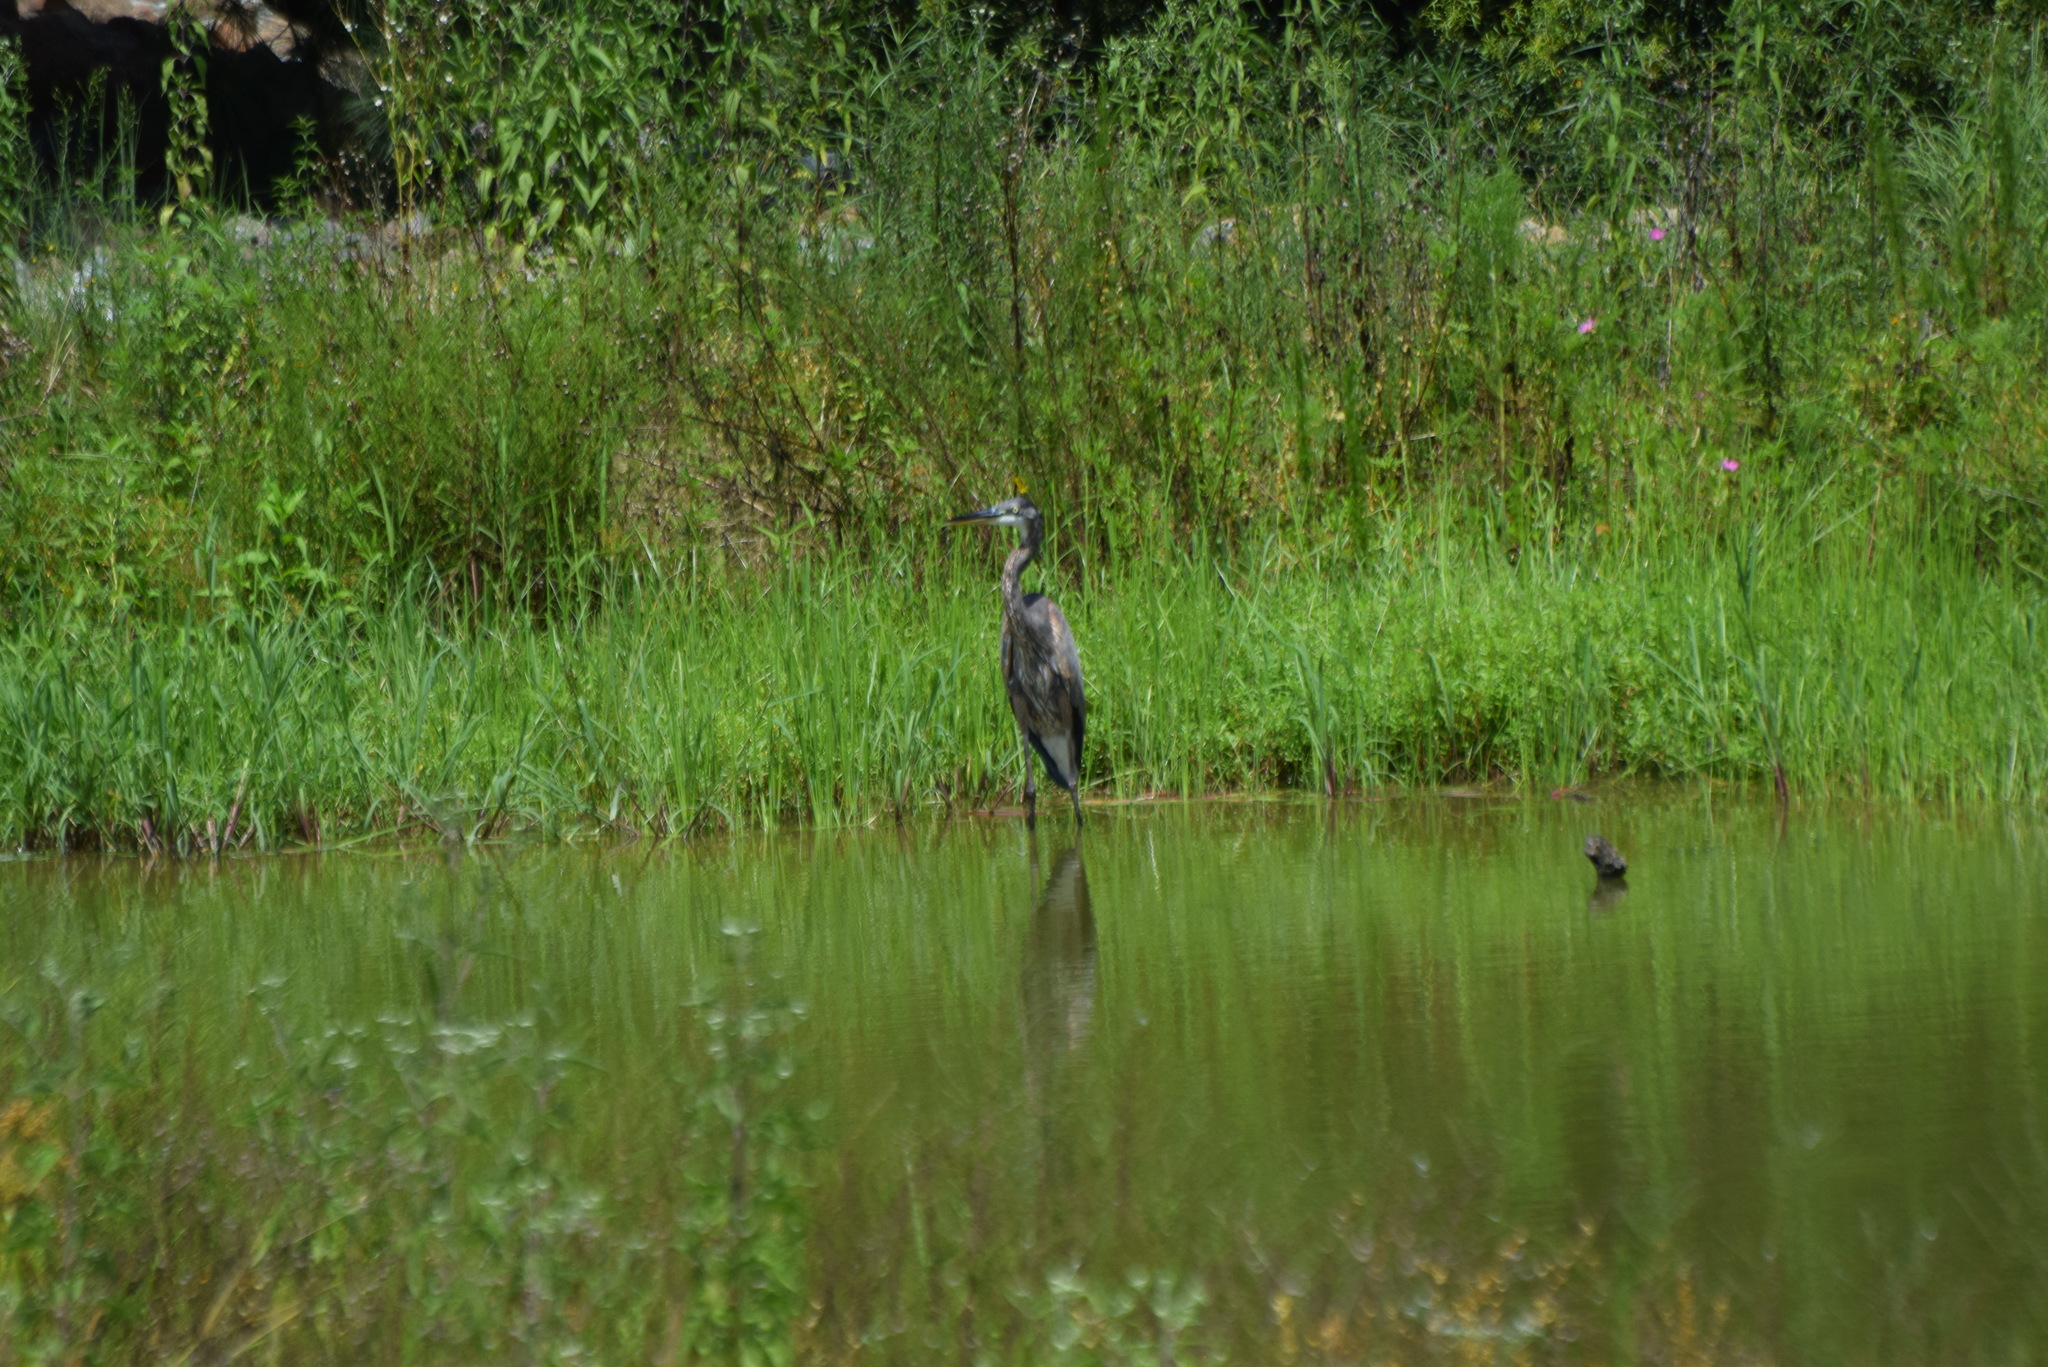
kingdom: Animalia
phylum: Chordata
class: Aves
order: Pelecaniformes
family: Ardeidae
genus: Ardea
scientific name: Ardea herodias
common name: Great blue heron
